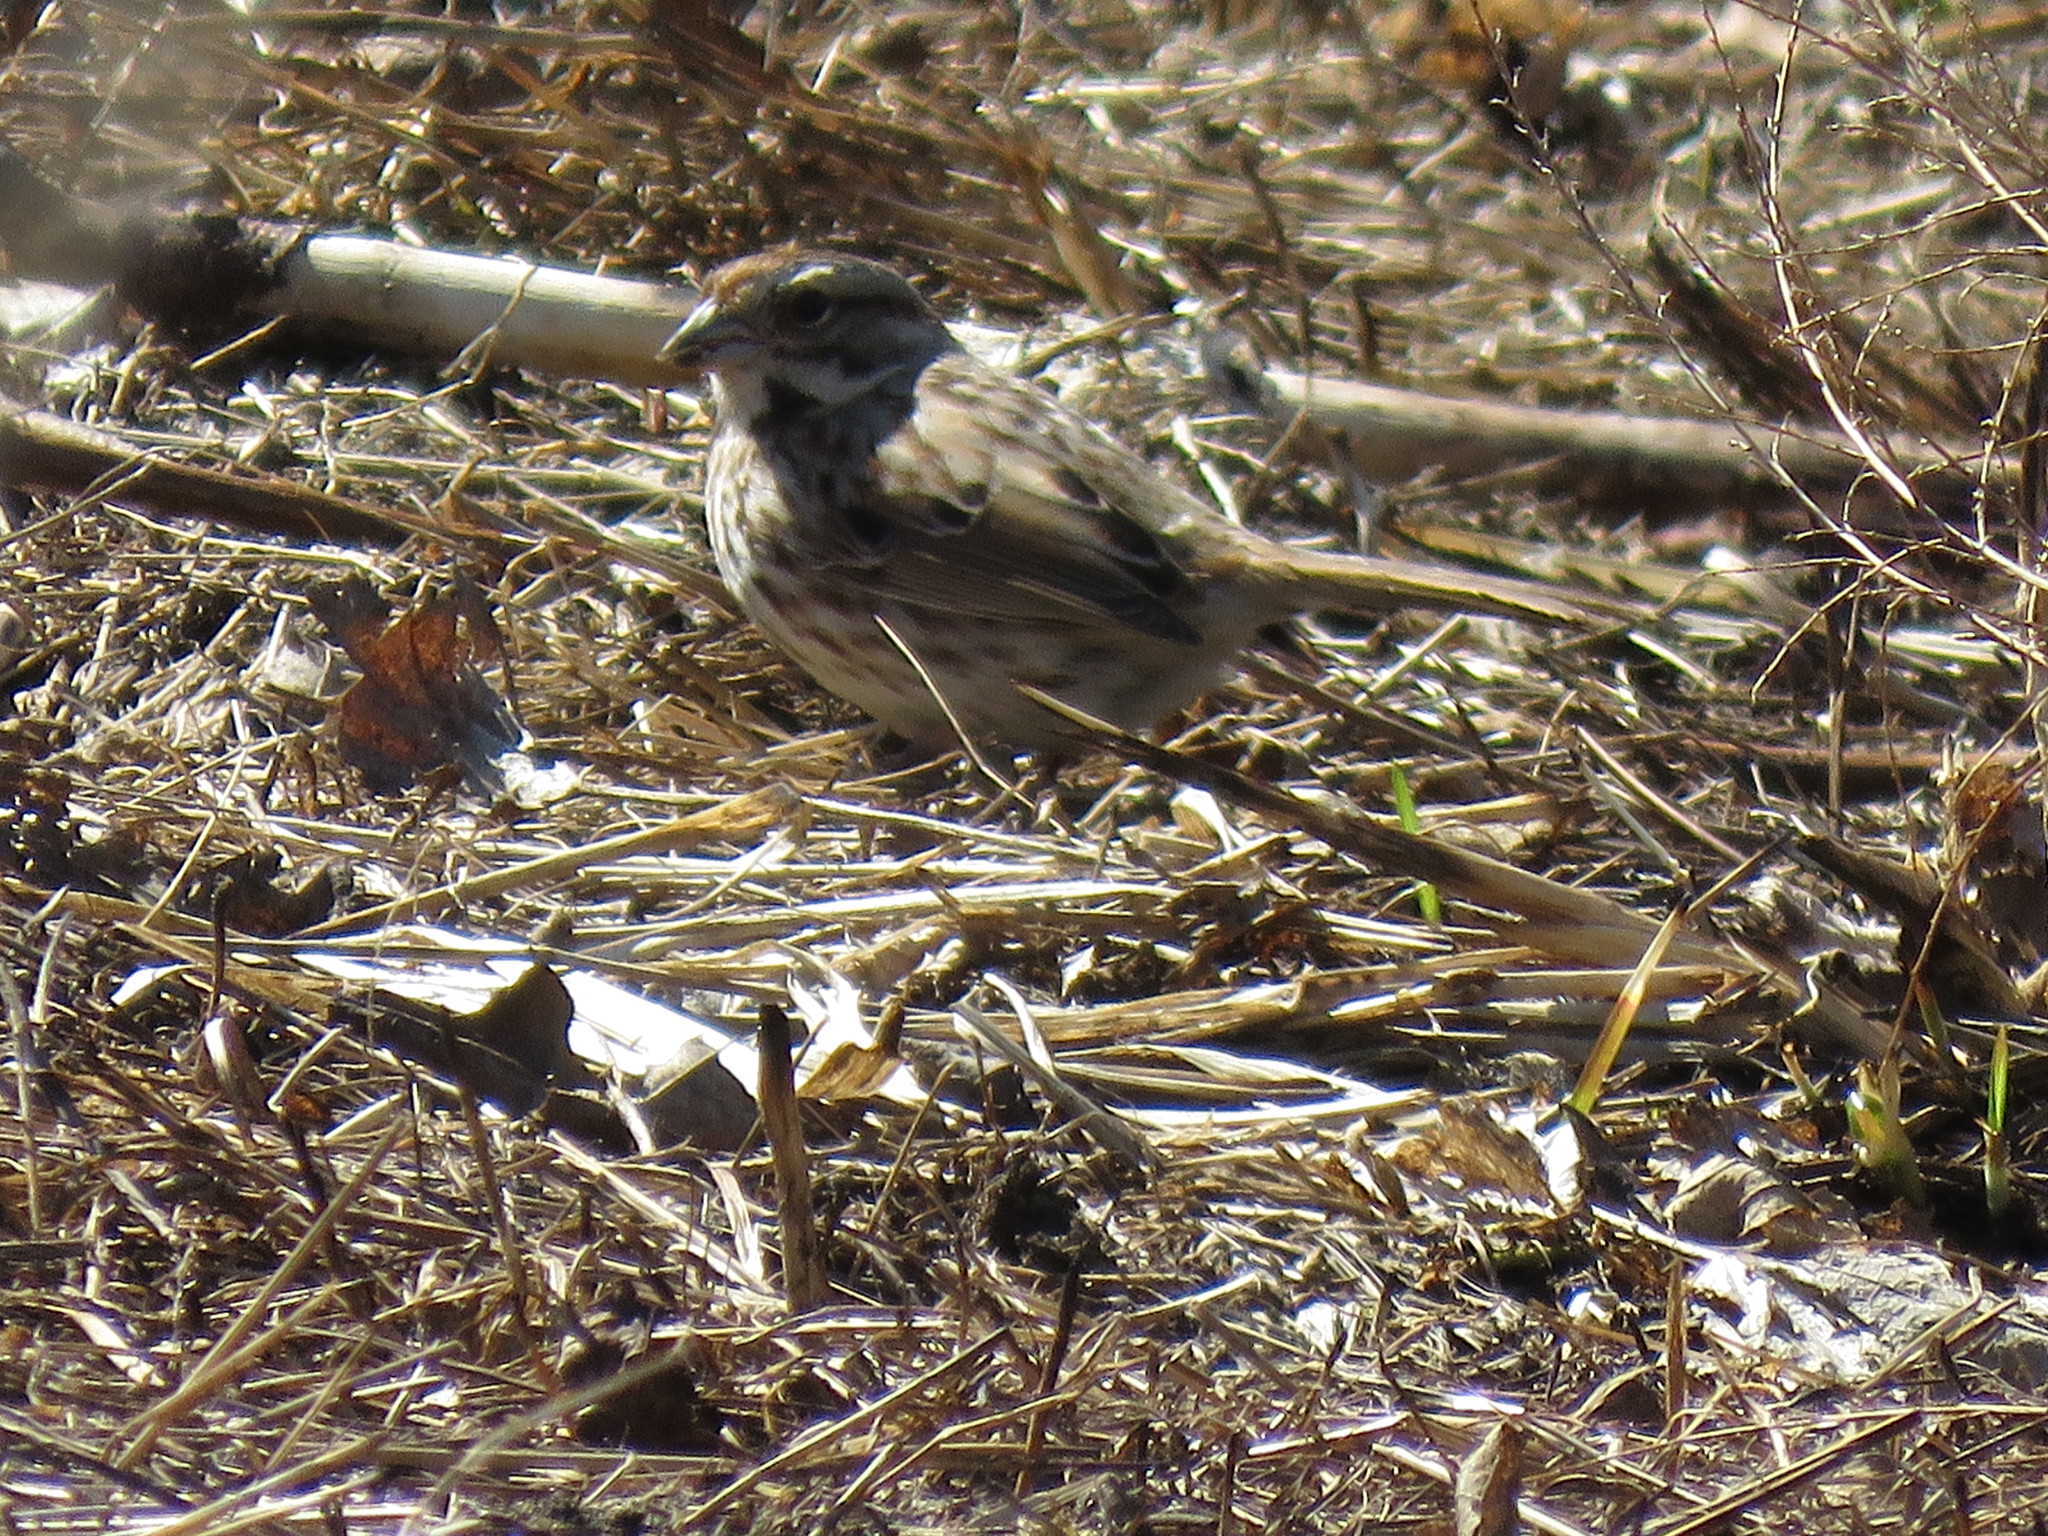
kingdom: Animalia
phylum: Chordata
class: Aves
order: Passeriformes
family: Passerellidae
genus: Melospiza
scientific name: Melospiza melodia
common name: Song sparrow
